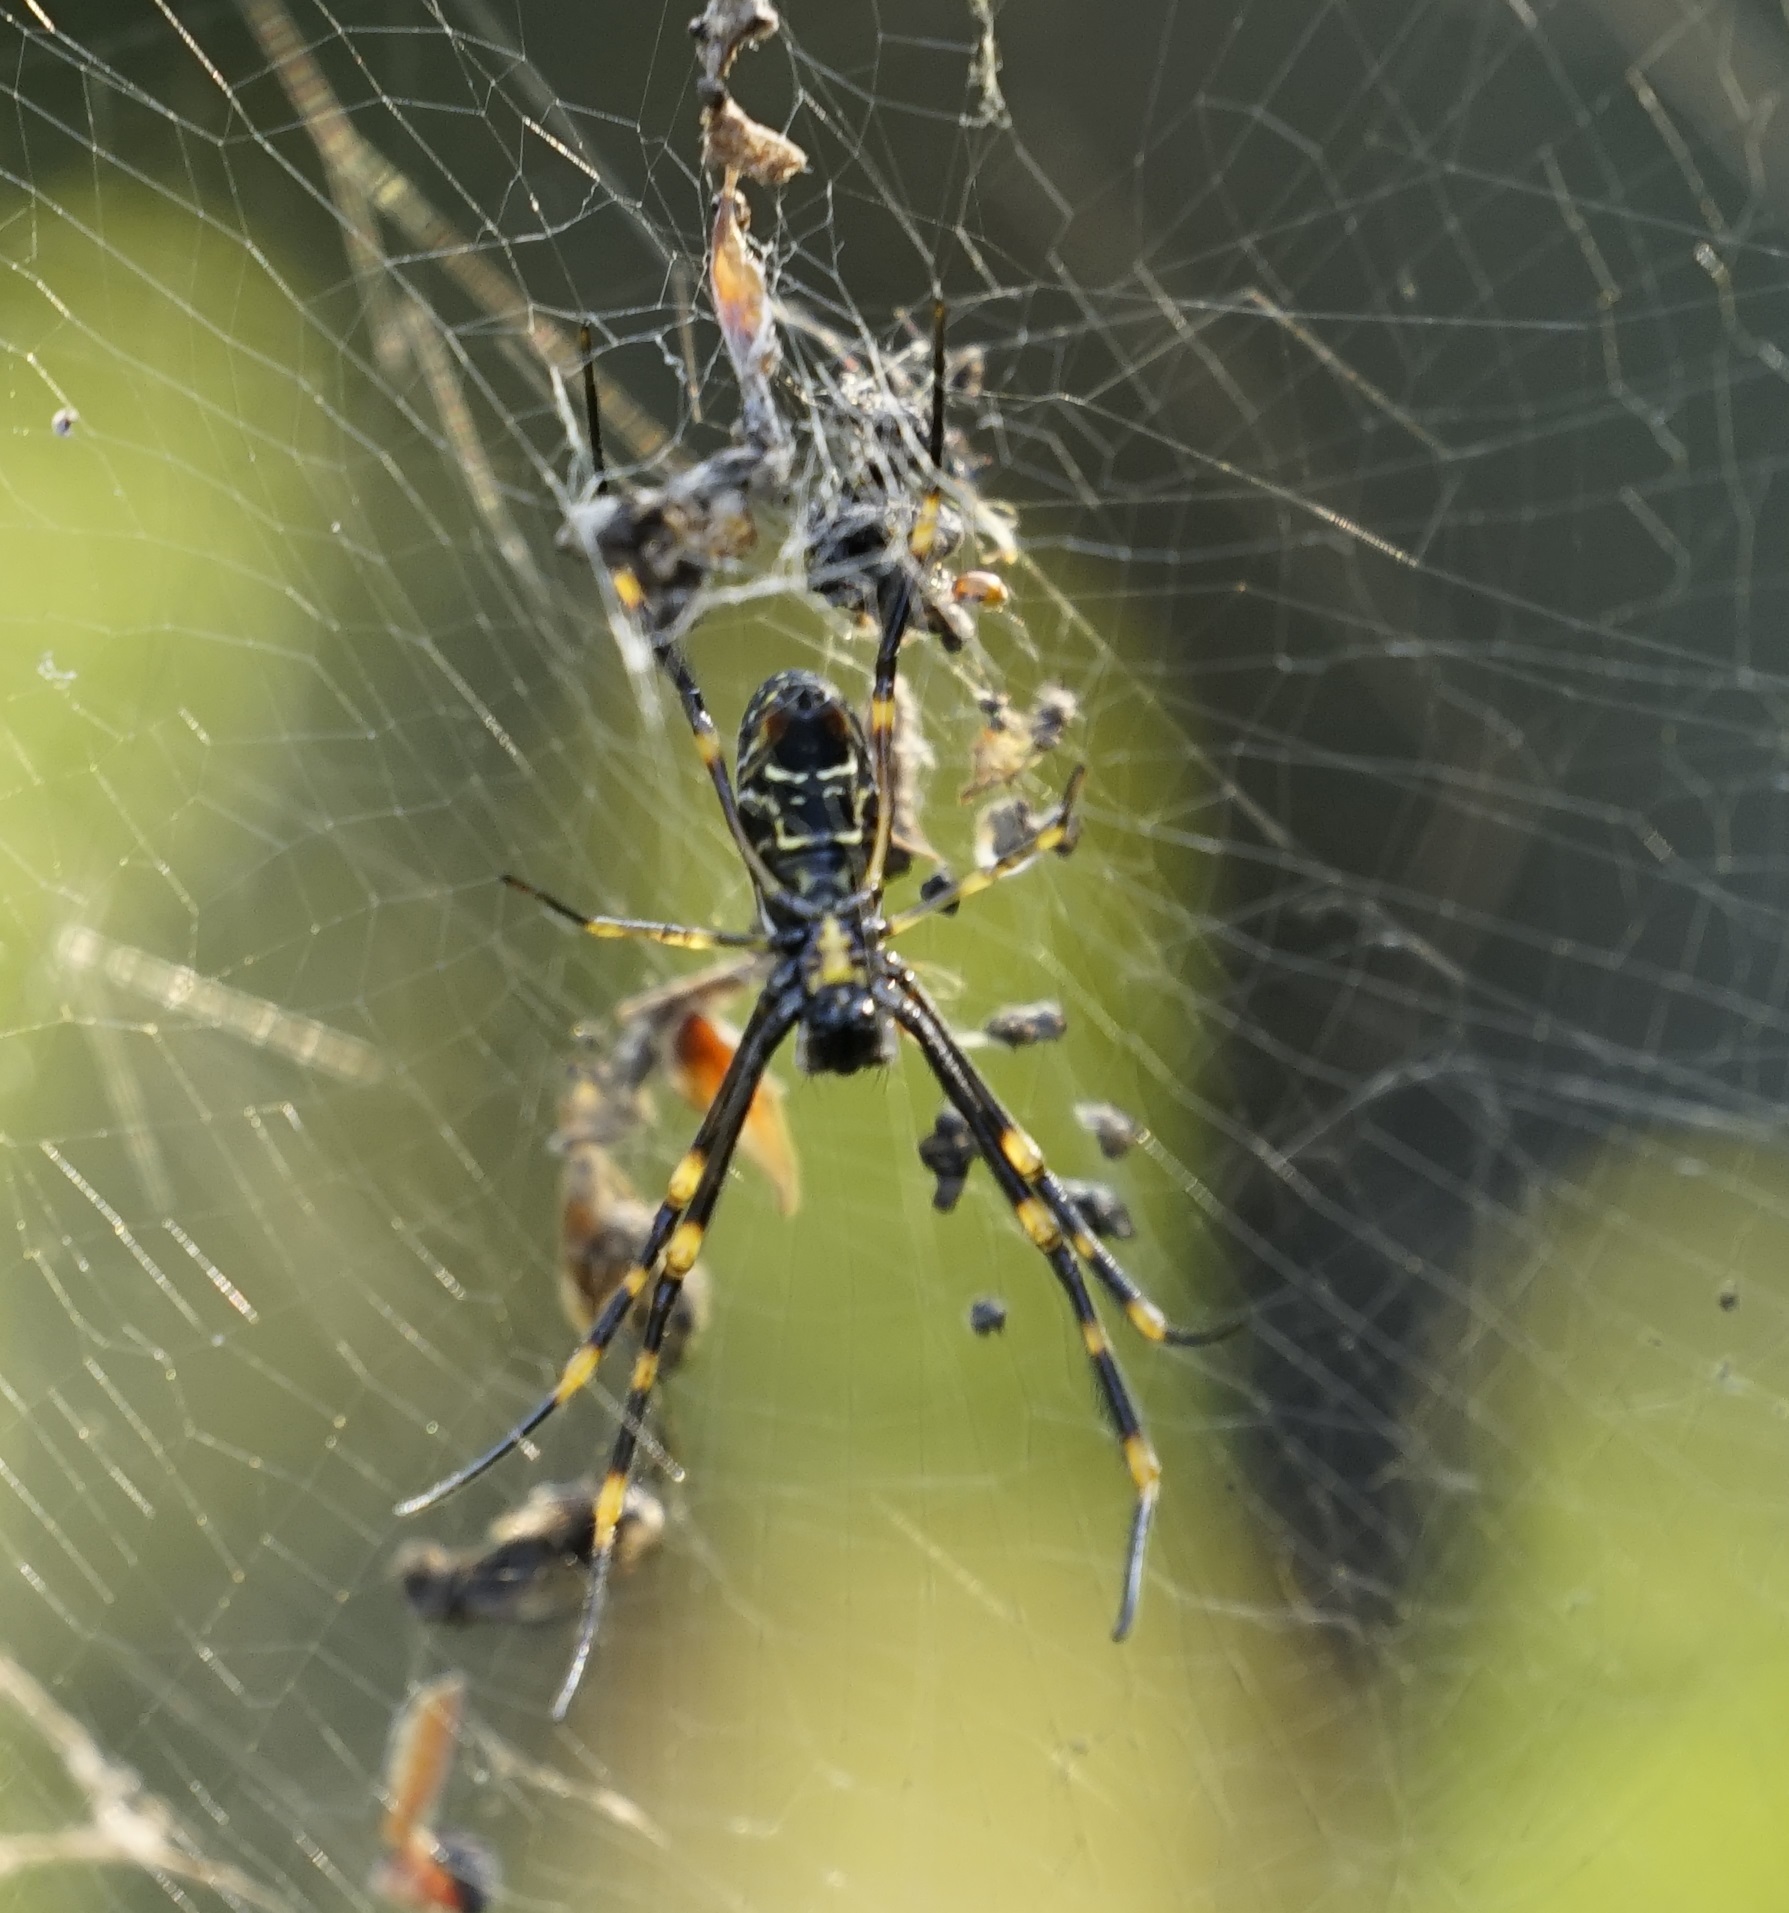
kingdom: Animalia
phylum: Arthropoda
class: Arachnida
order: Araneae
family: Araneidae
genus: Trichonephila
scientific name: Trichonephila plumipes
